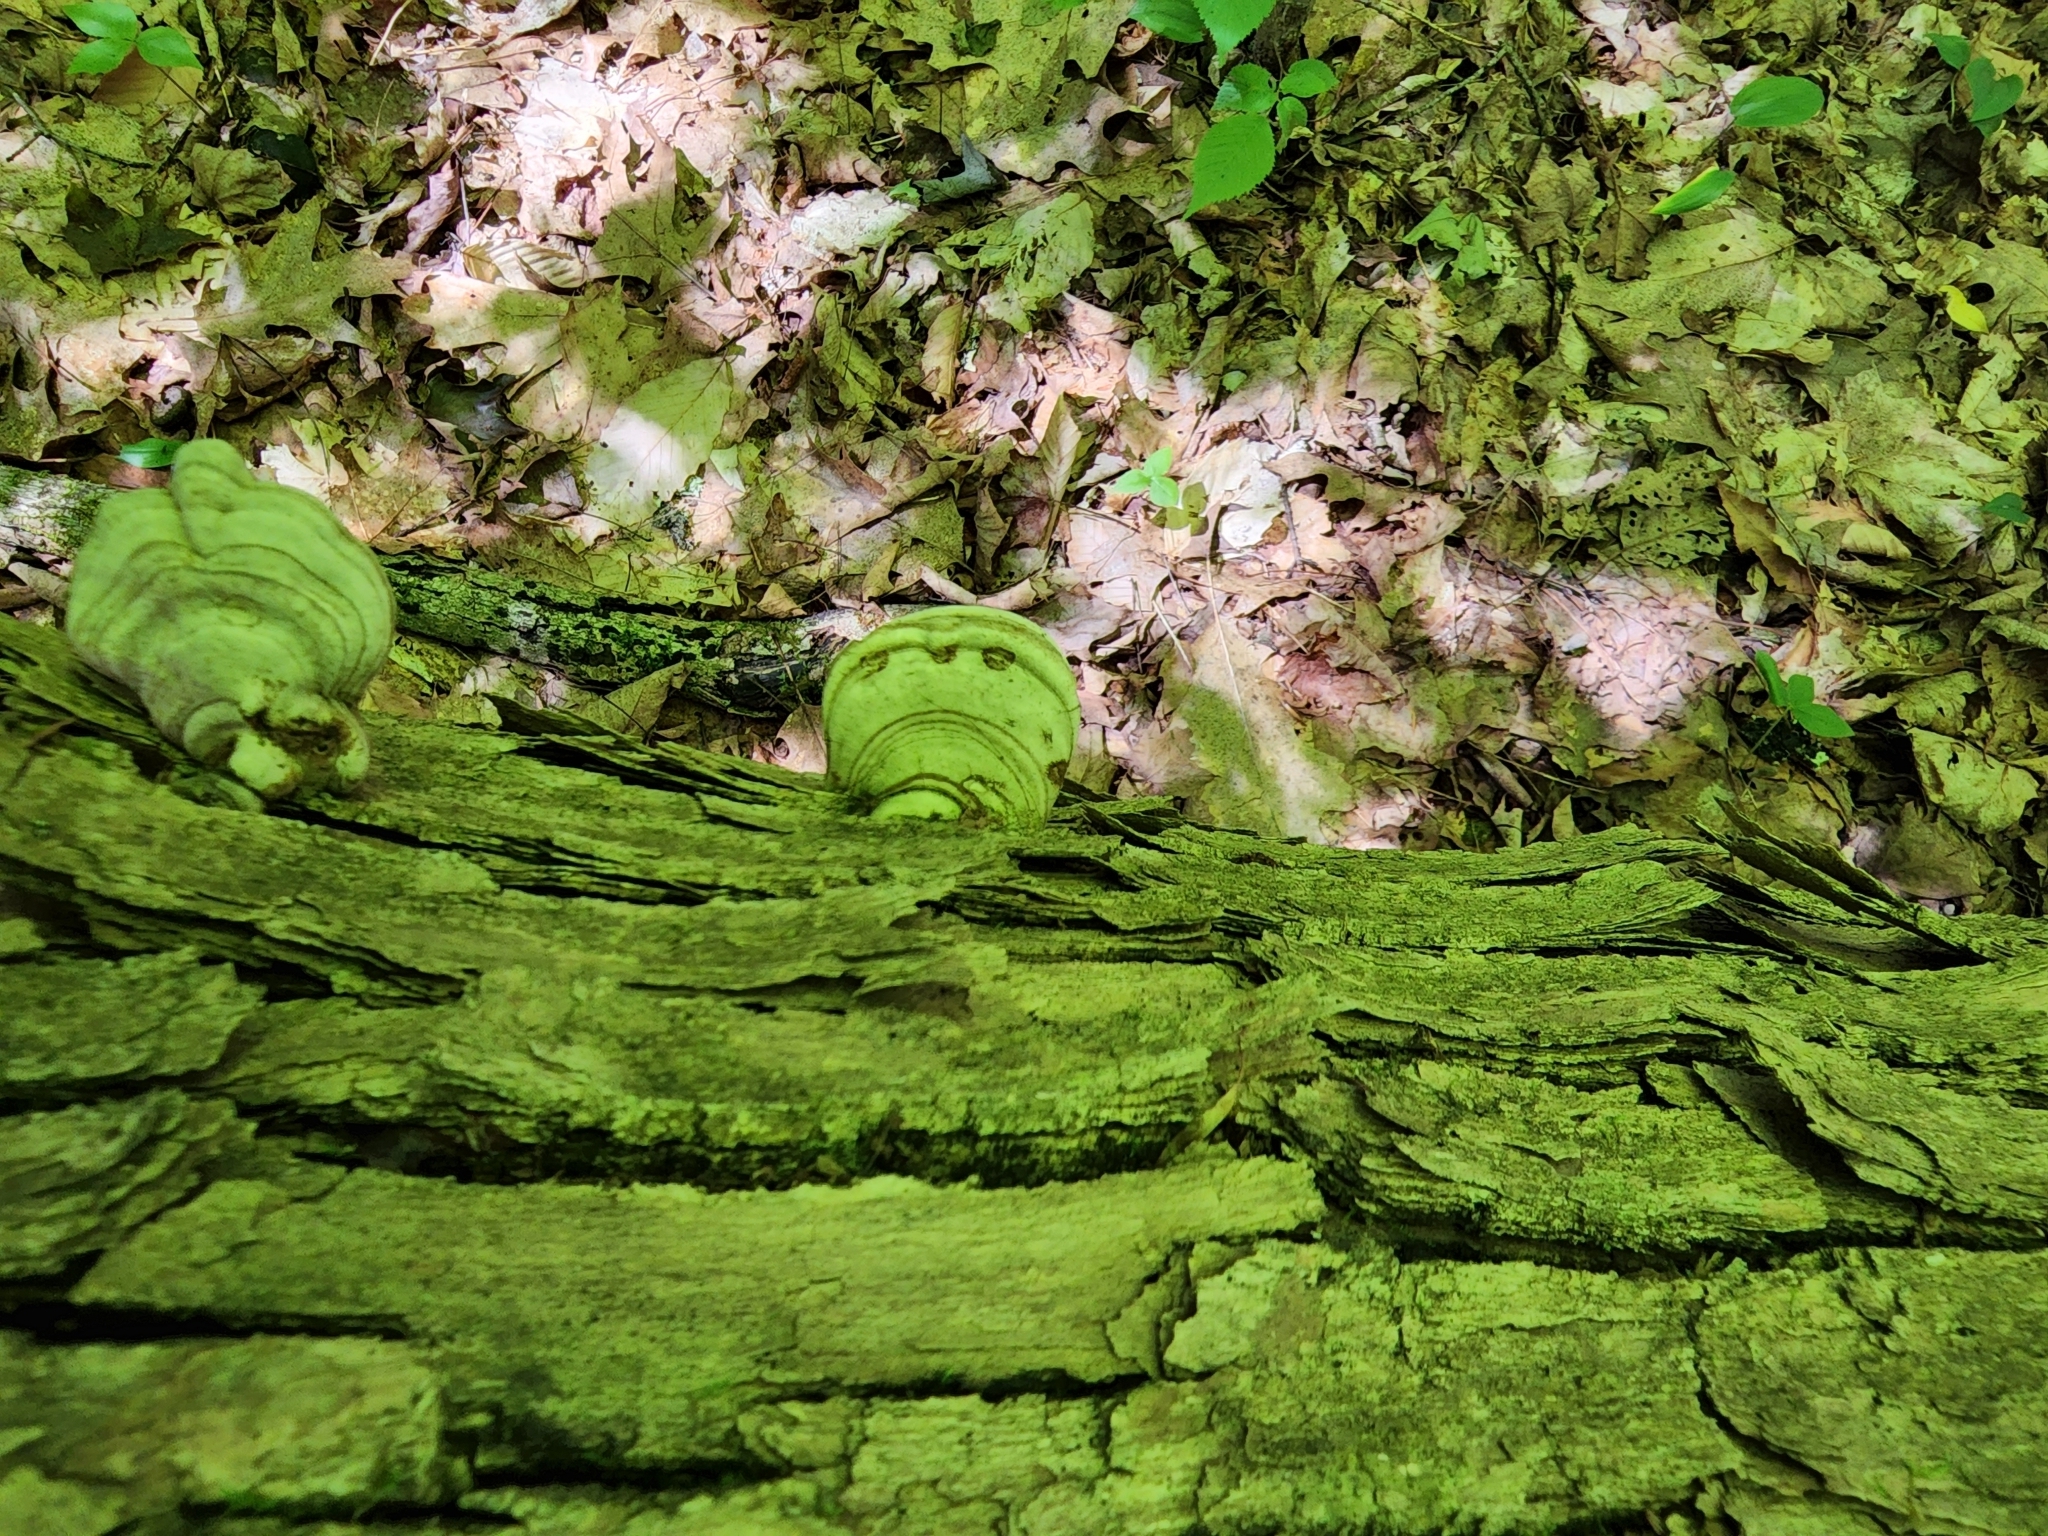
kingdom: Fungi
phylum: Basidiomycota
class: Agaricomycetes
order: Polyporales
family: Polyporaceae
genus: Fomes
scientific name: Fomes fomentarius
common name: Hoof fungus
